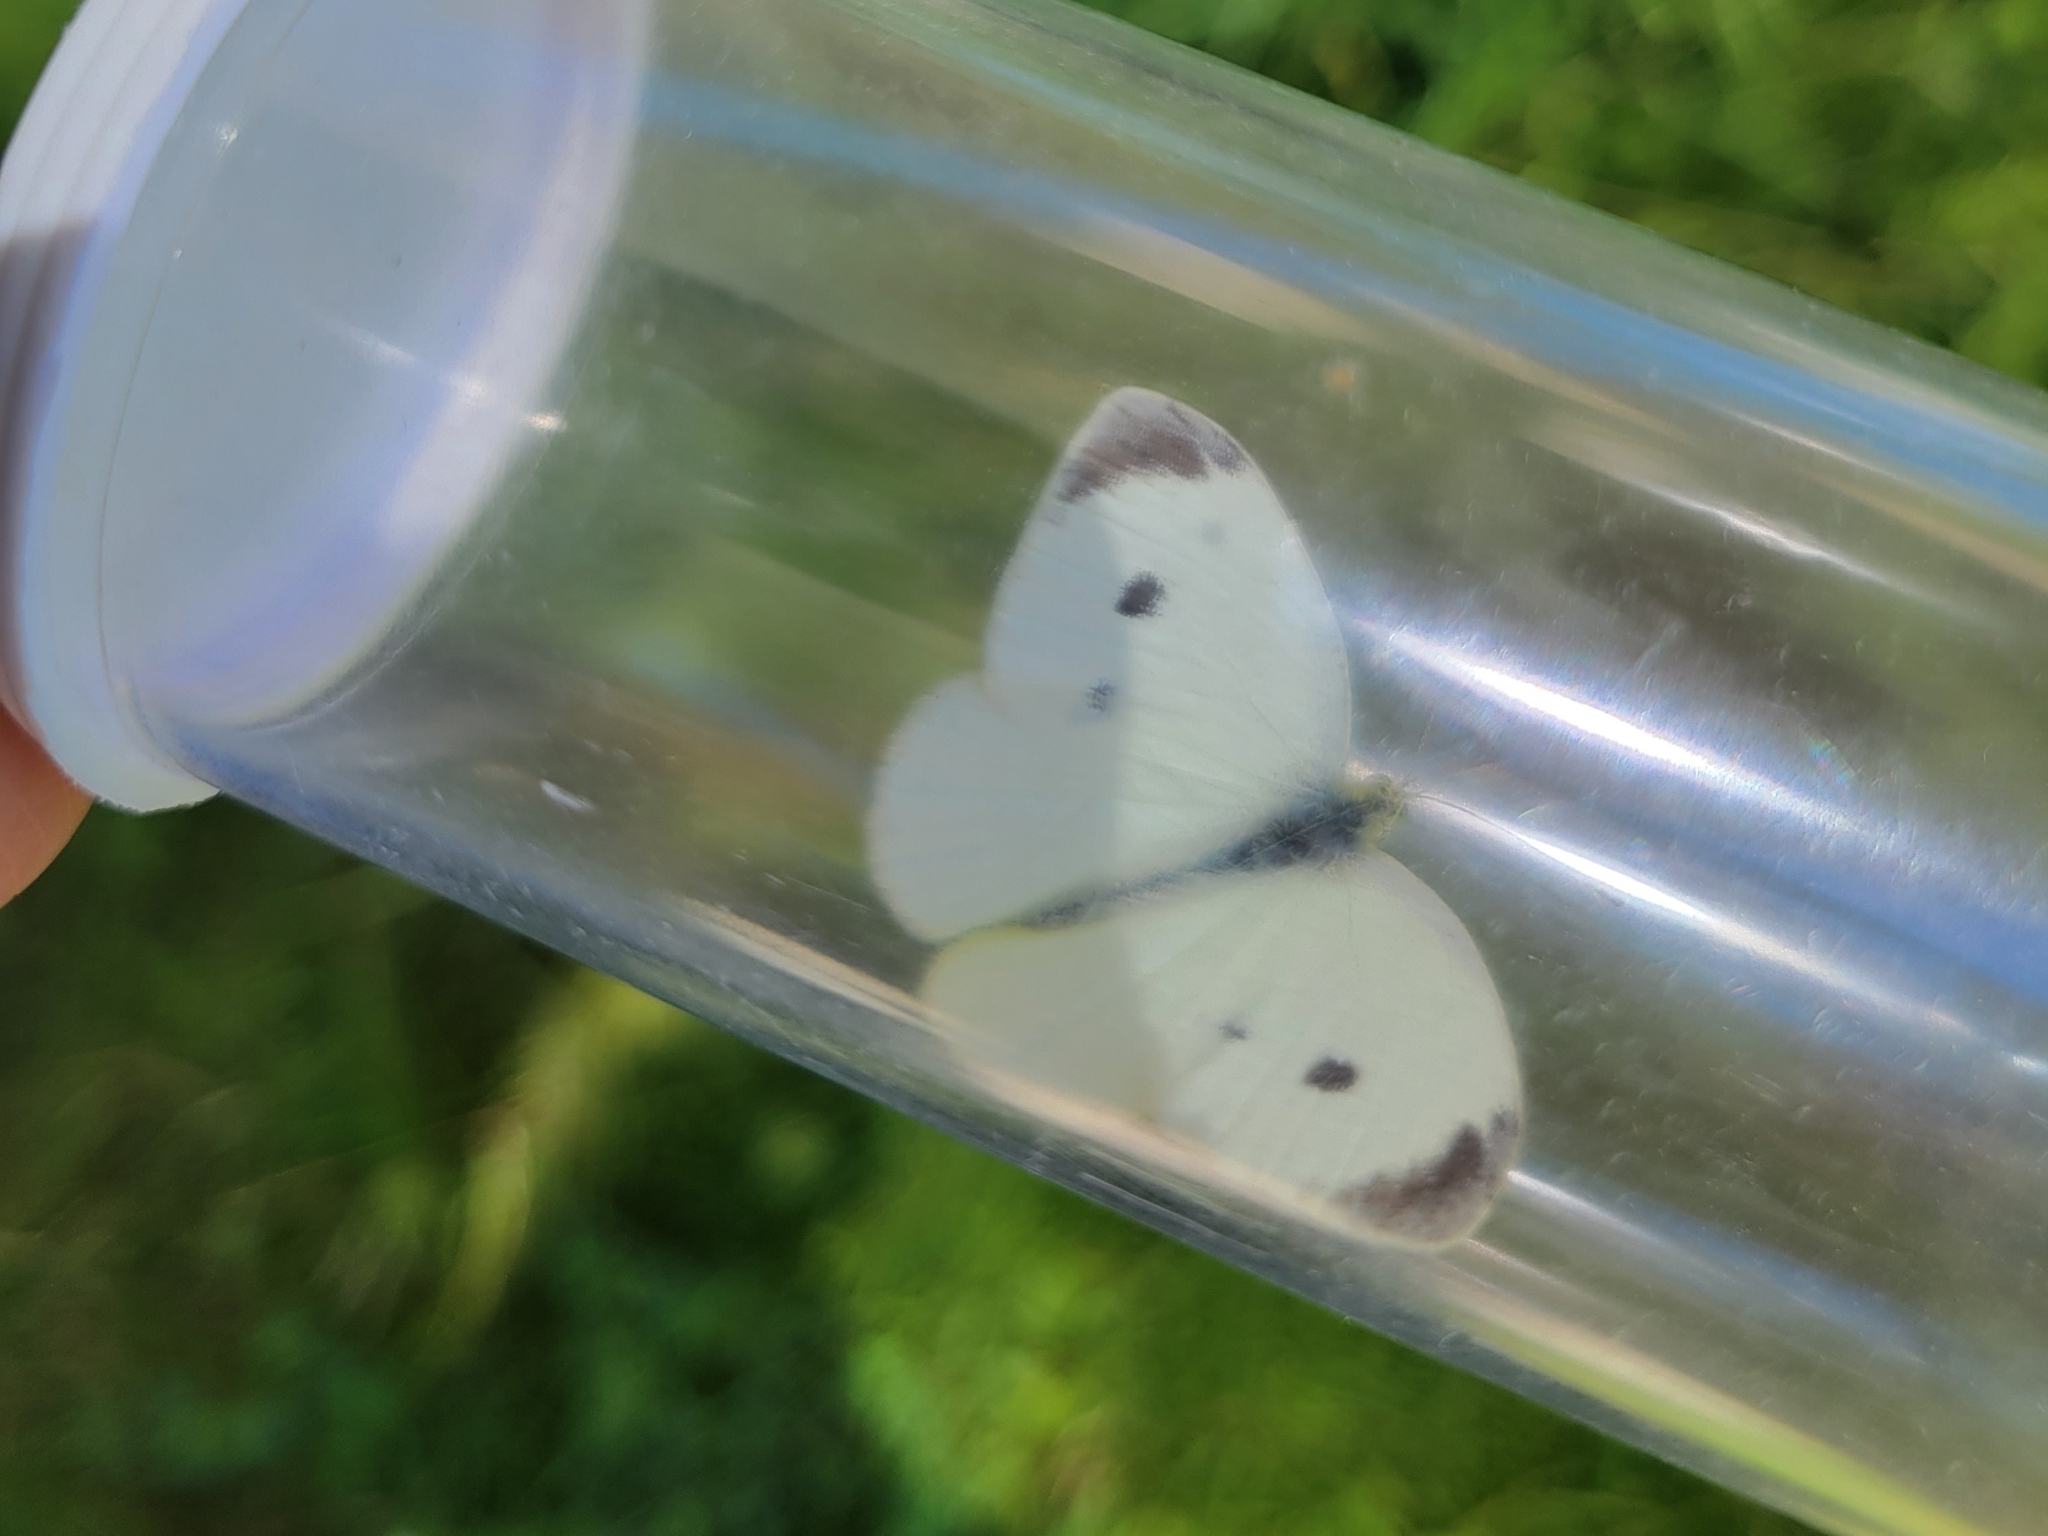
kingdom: Animalia
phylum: Arthropoda
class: Insecta
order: Lepidoptera
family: Pieridae
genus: Pieris
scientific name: Pieris rapae
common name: Small white
